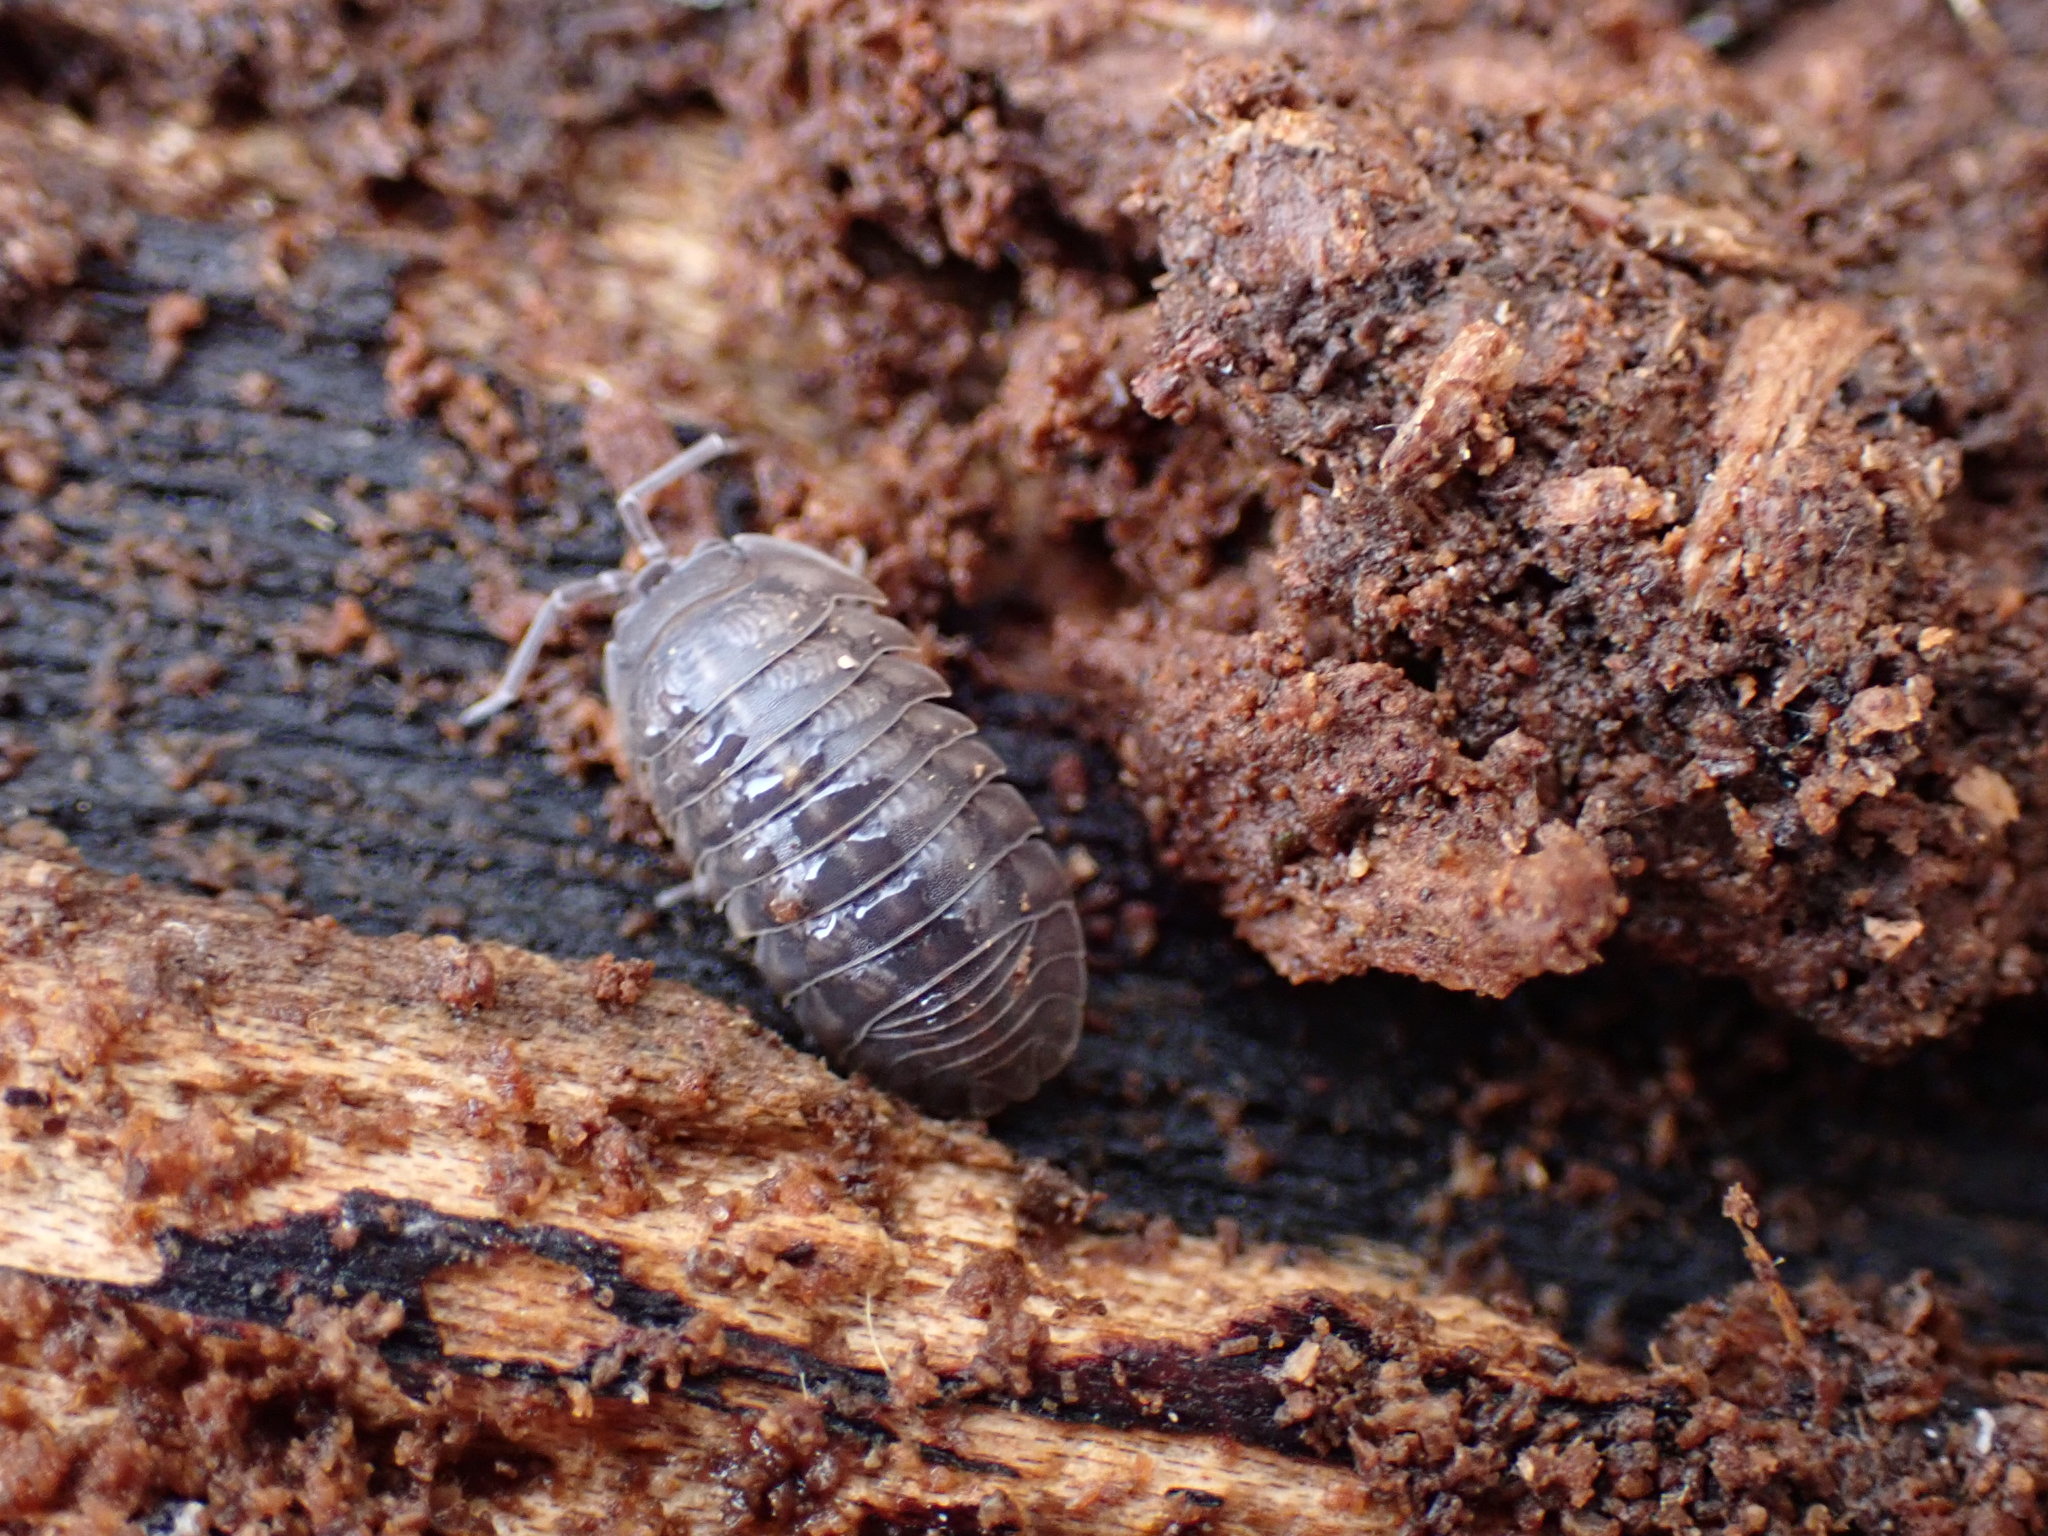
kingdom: Animalia
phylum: Arthropoda
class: Malacostraca
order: Isopoda
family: Armadillidiidae
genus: Armadillidium
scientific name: Armadillidium vulgare
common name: Common pill woodlouse
